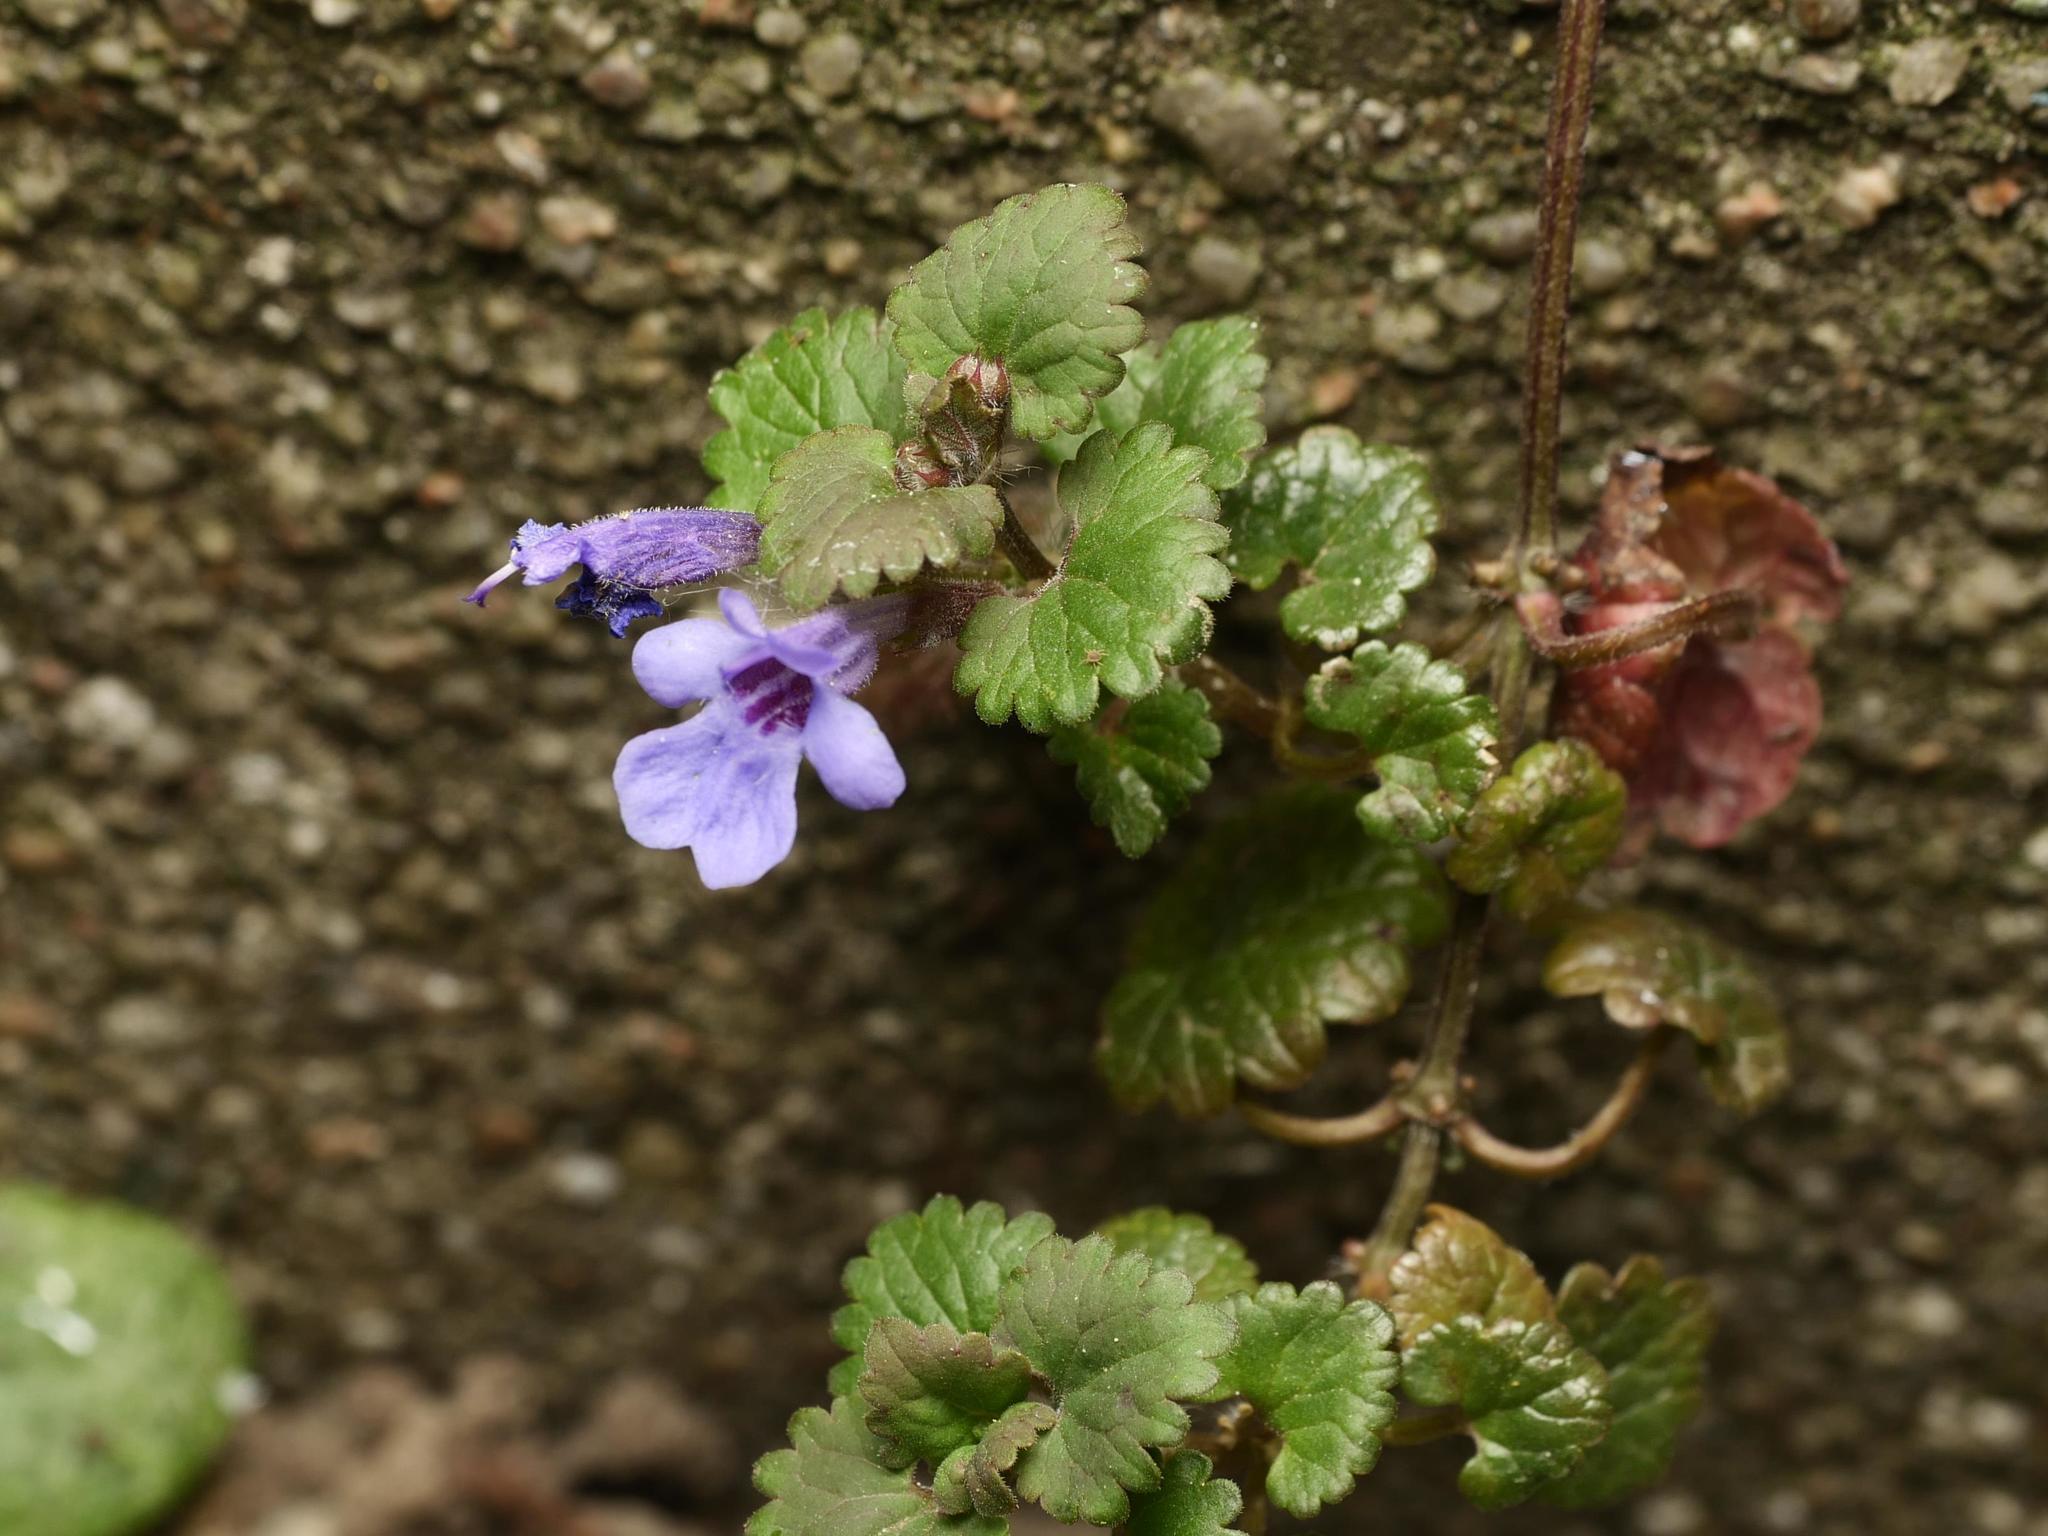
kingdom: Plantae
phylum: Tracheophyta
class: Magnoliopsida
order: Lamiales
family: Lamiaceae
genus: Glechoma
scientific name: Glechoma hederacea
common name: Ground ivy
